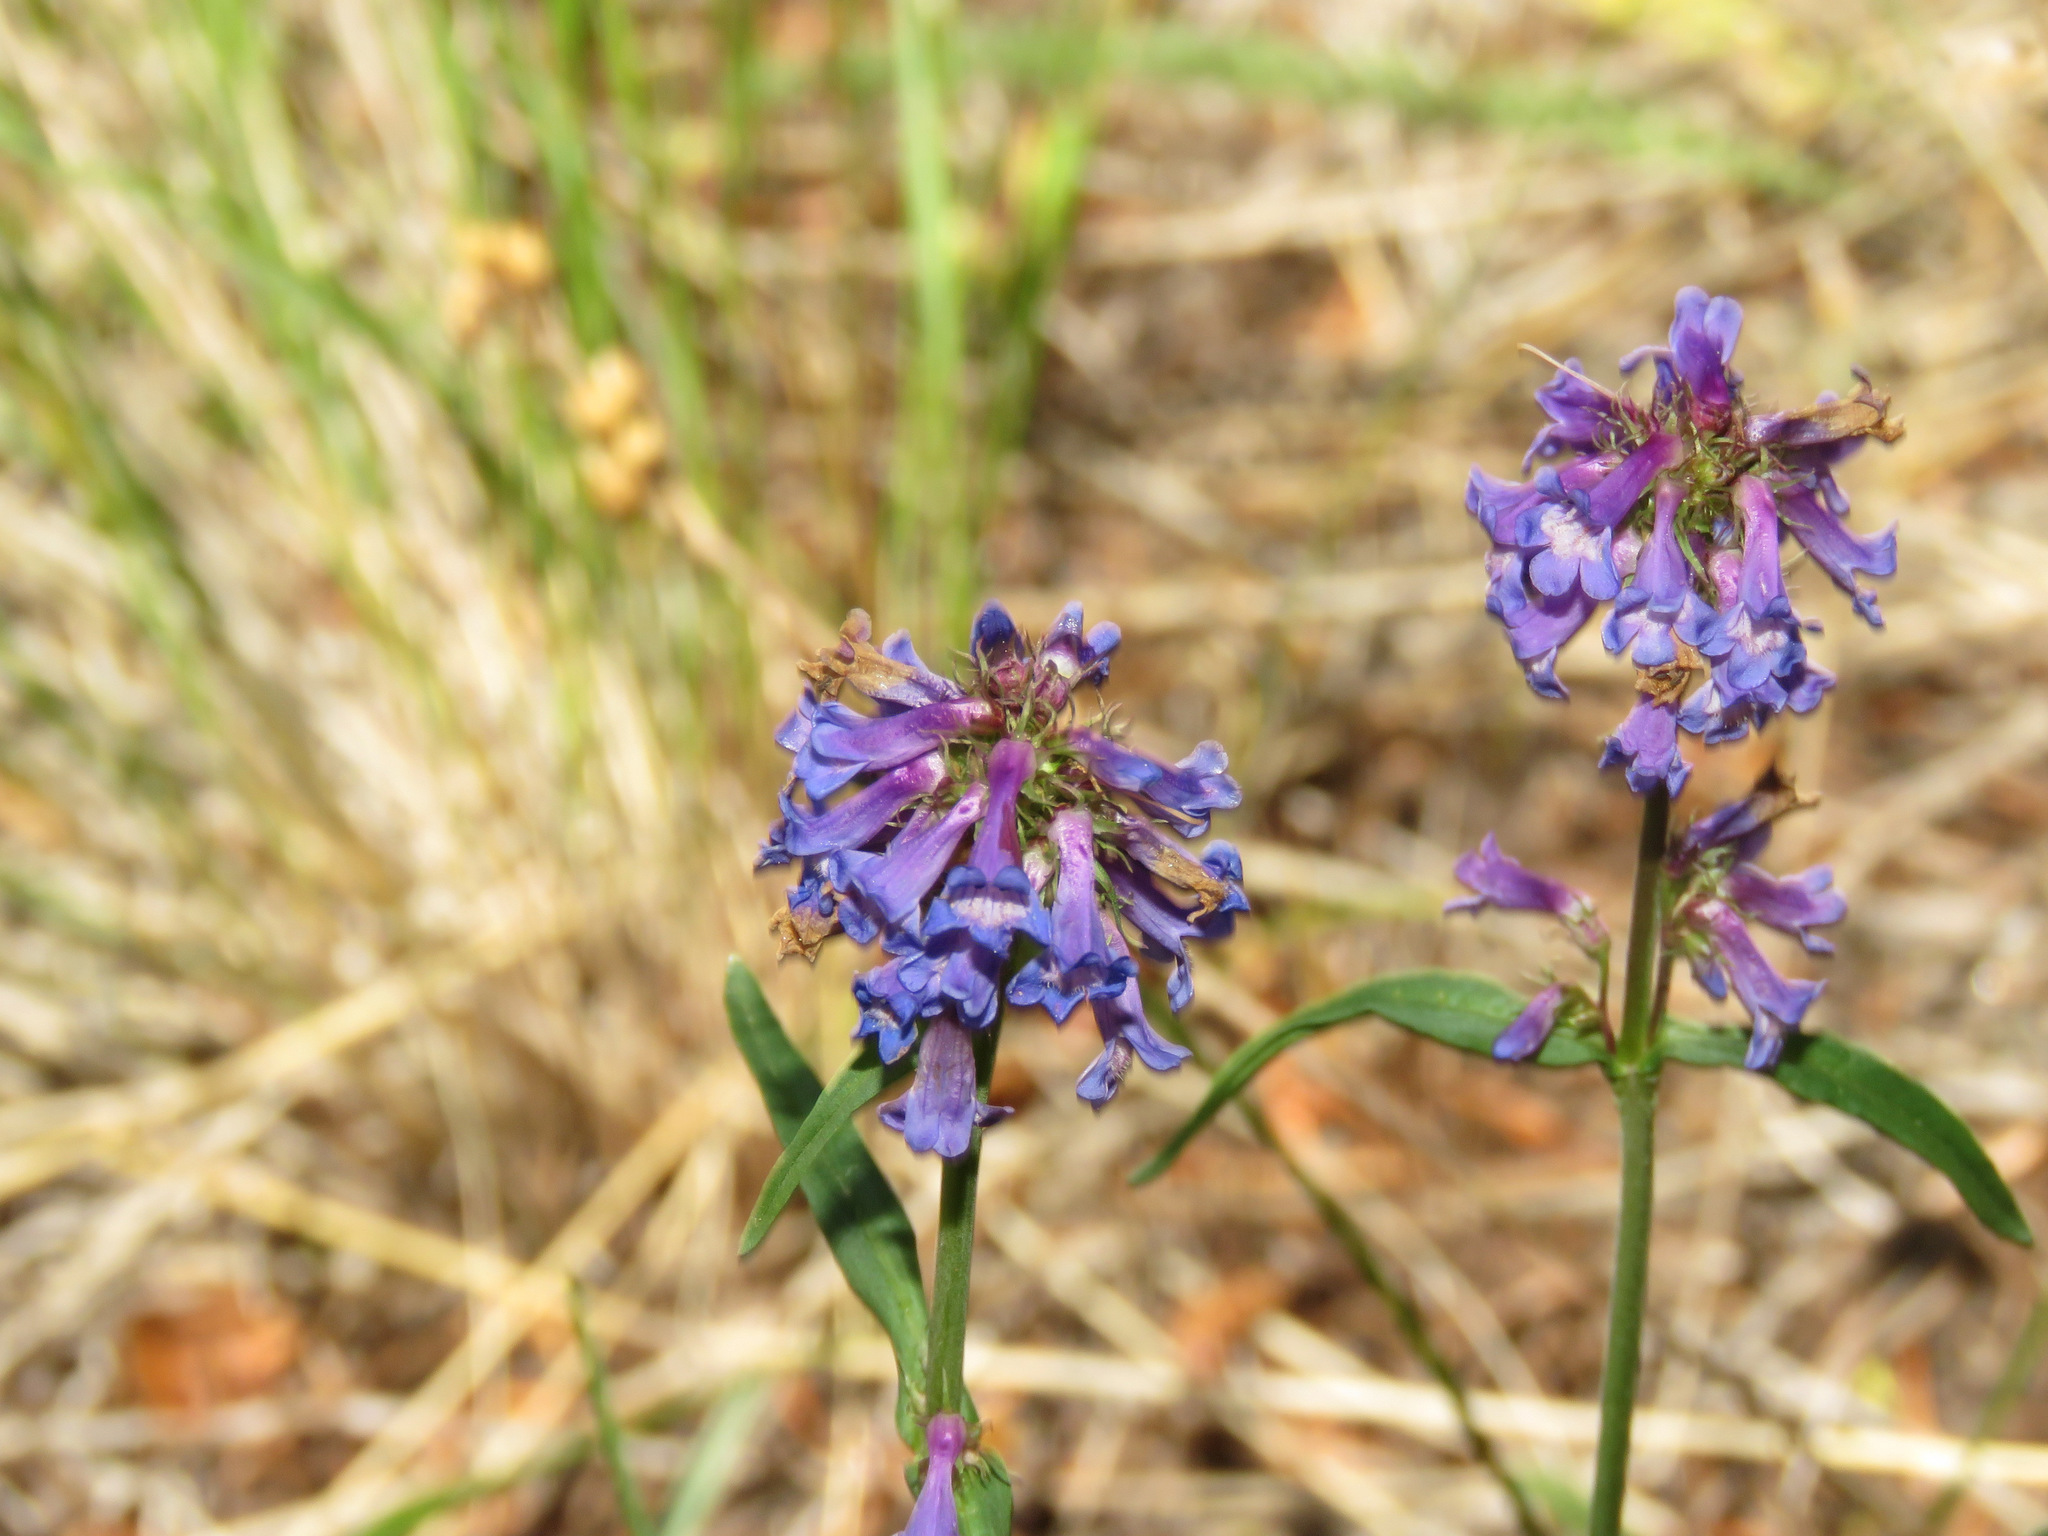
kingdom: Plantae
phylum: Tracheophyta
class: Magnoliopsida
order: Lamiales
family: Plantaginaceae
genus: Penstemon
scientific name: Penstemon procerus
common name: Small-flower penstemon
